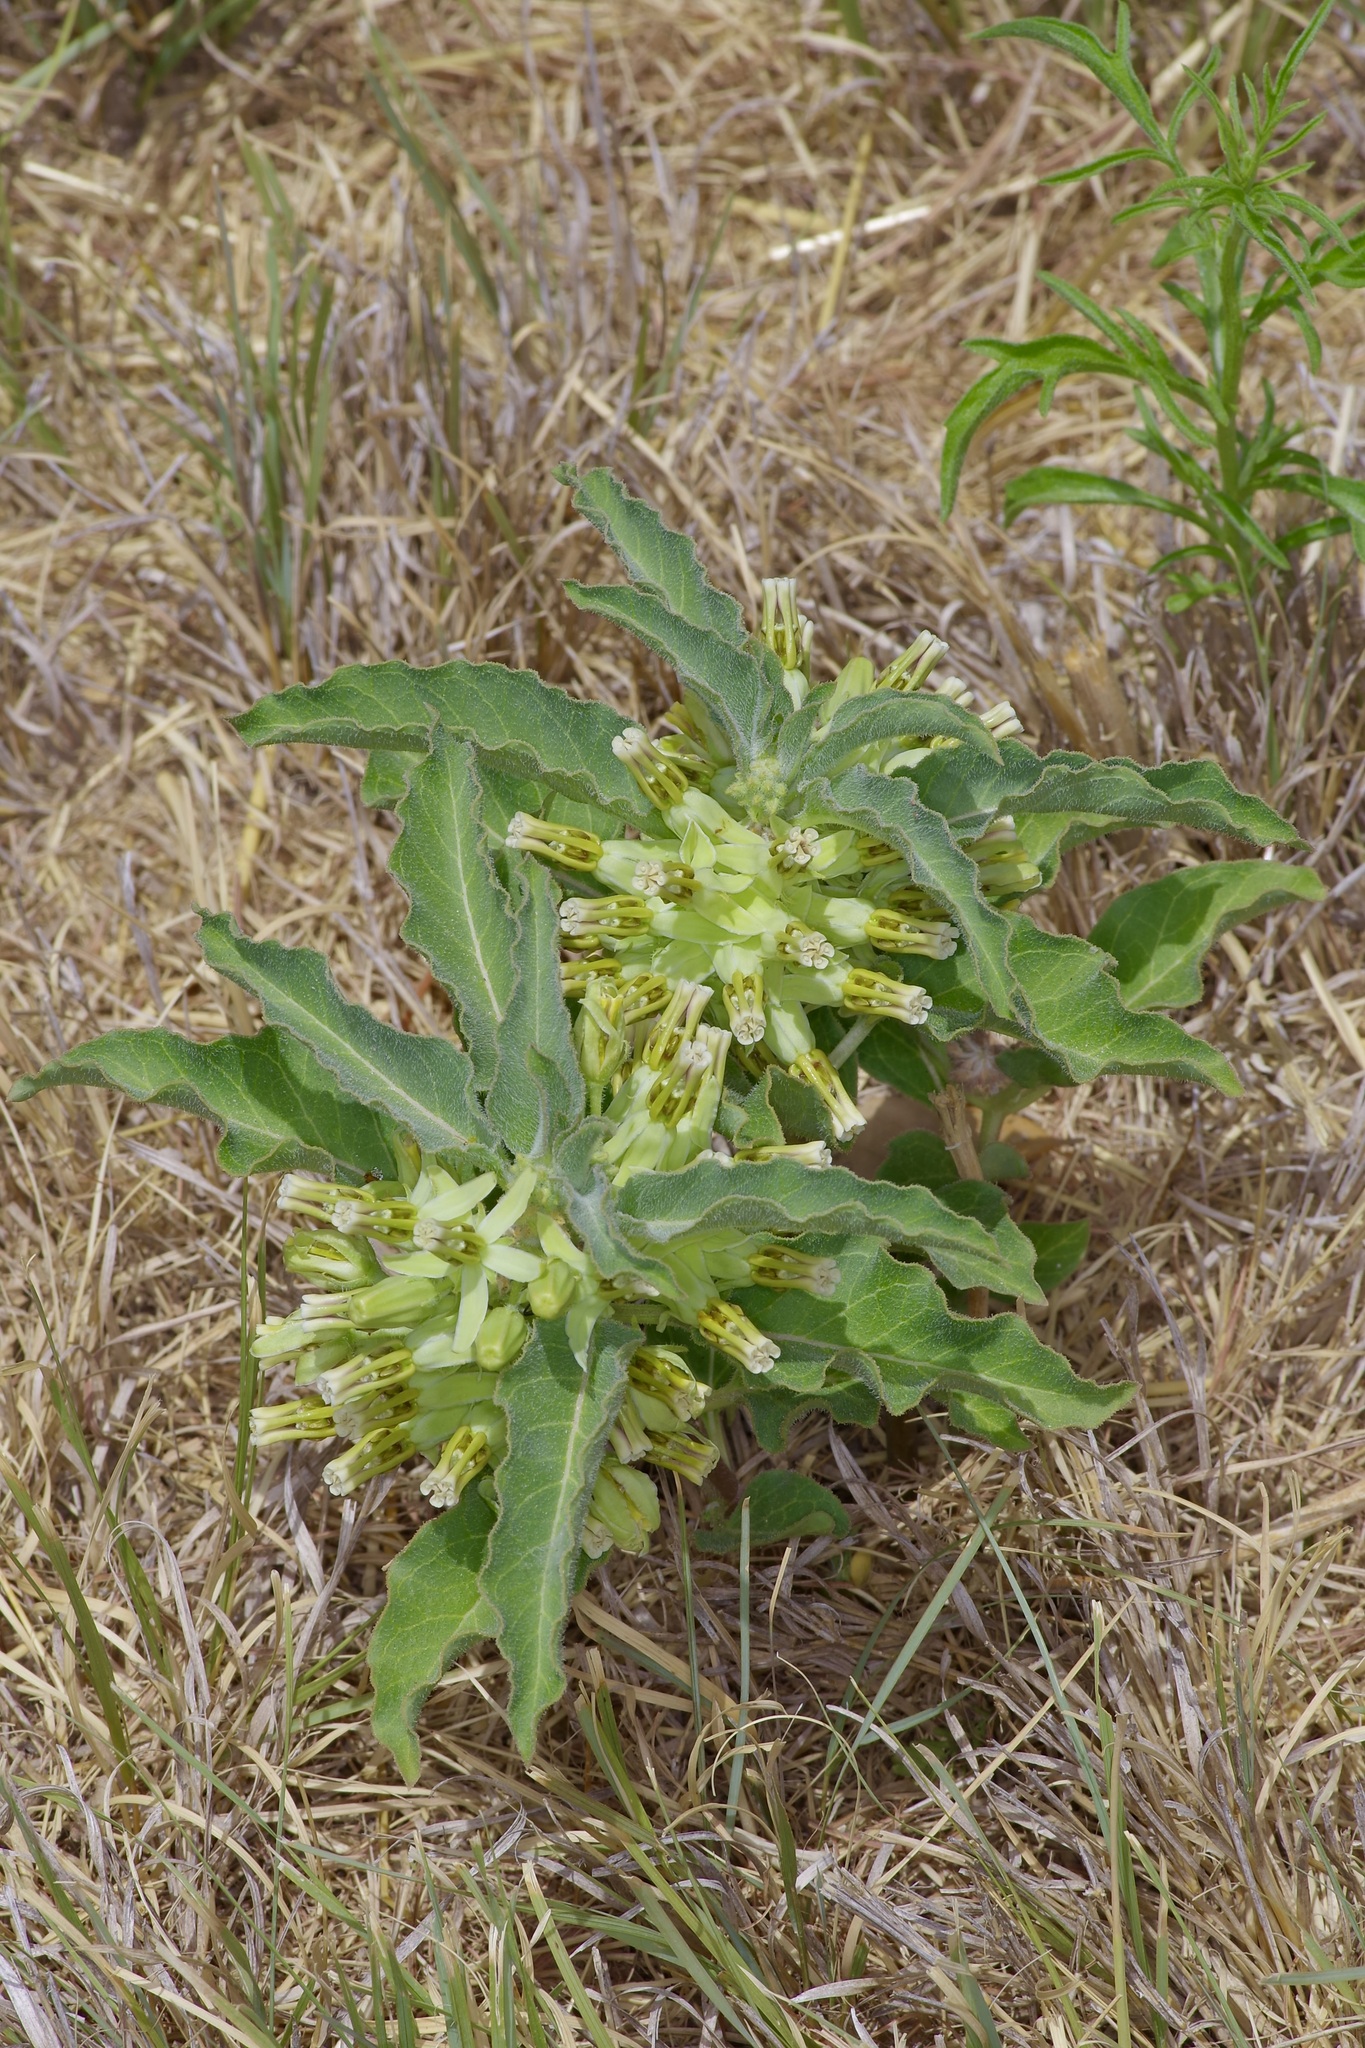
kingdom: Plantae
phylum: Tracheophyta
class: Magnoliopsida
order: Gentianales
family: Apocynaceae
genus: Asclepias
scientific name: Asclepias oenotheroides
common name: Zizotes milkweed
